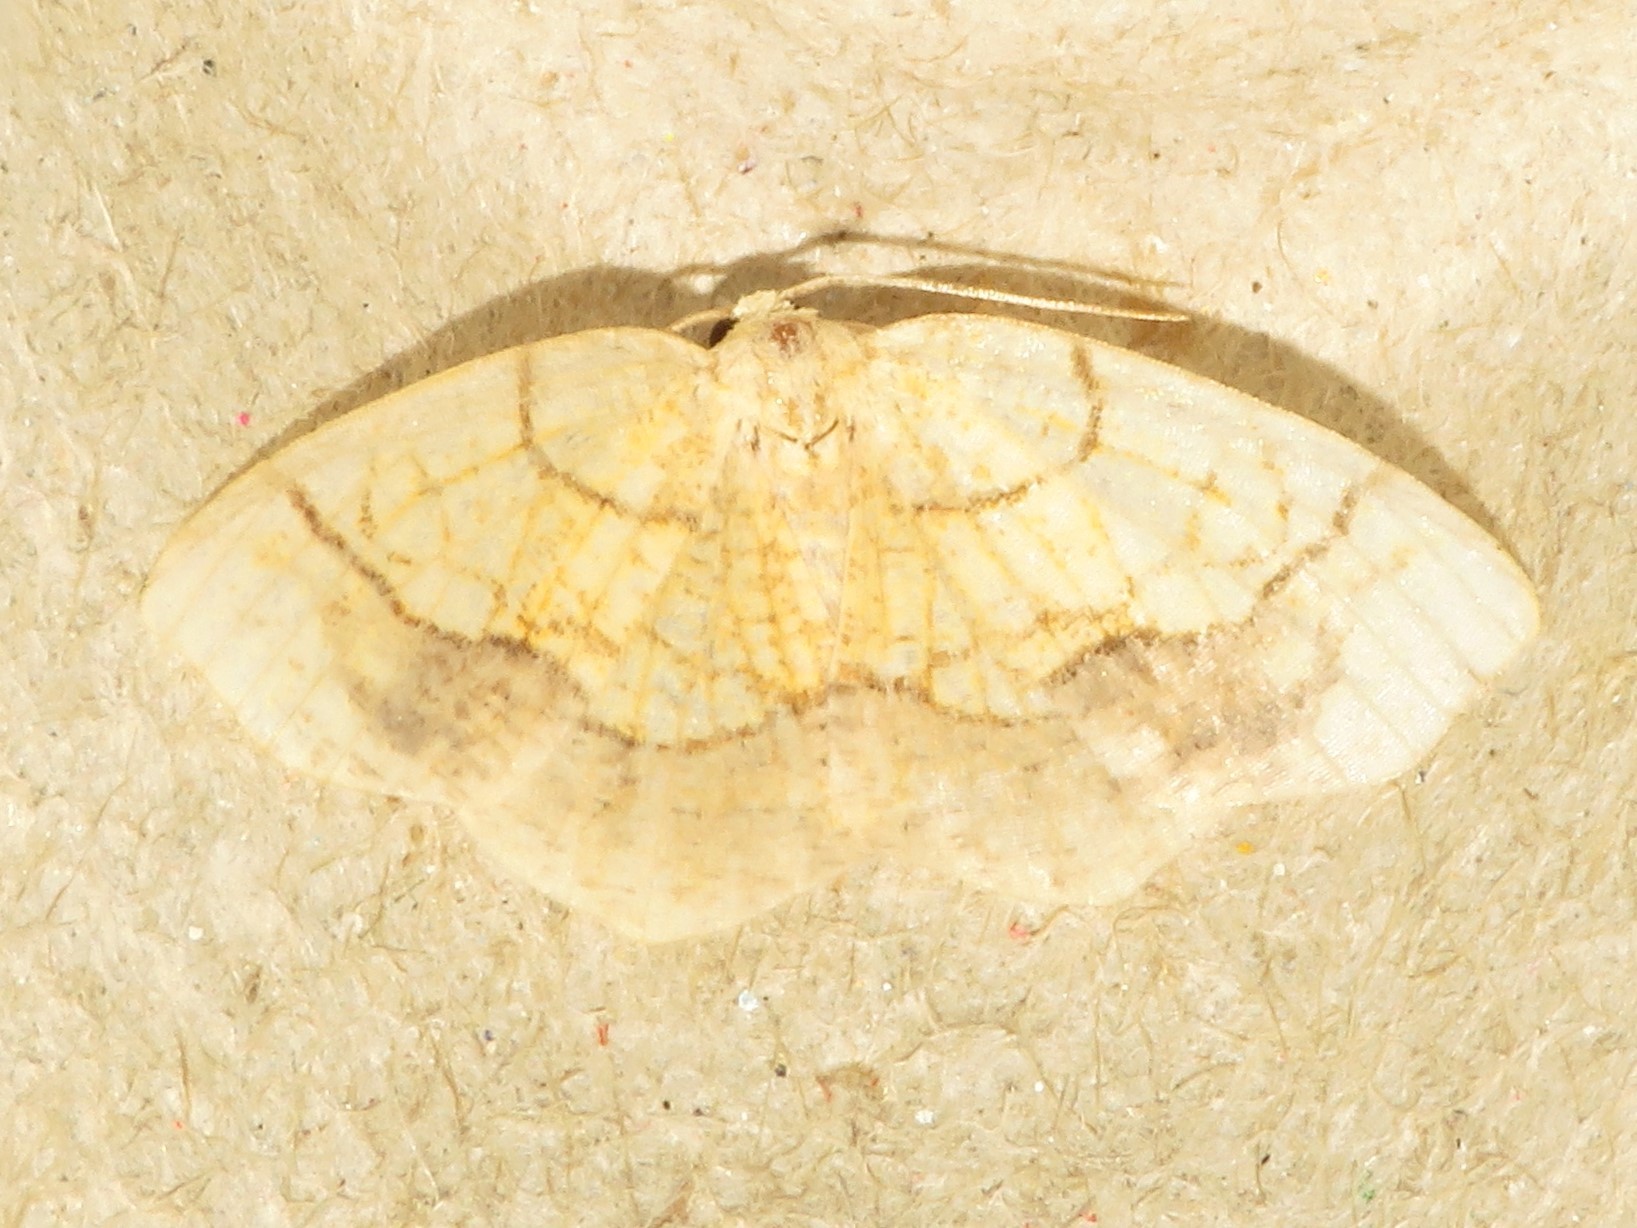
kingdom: Animalia
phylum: Arthropoda
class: Insecta
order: Lepidoptera
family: Geometridae
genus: Nematocampa
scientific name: Nematocampa resistaria
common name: Horned spanworm moth
